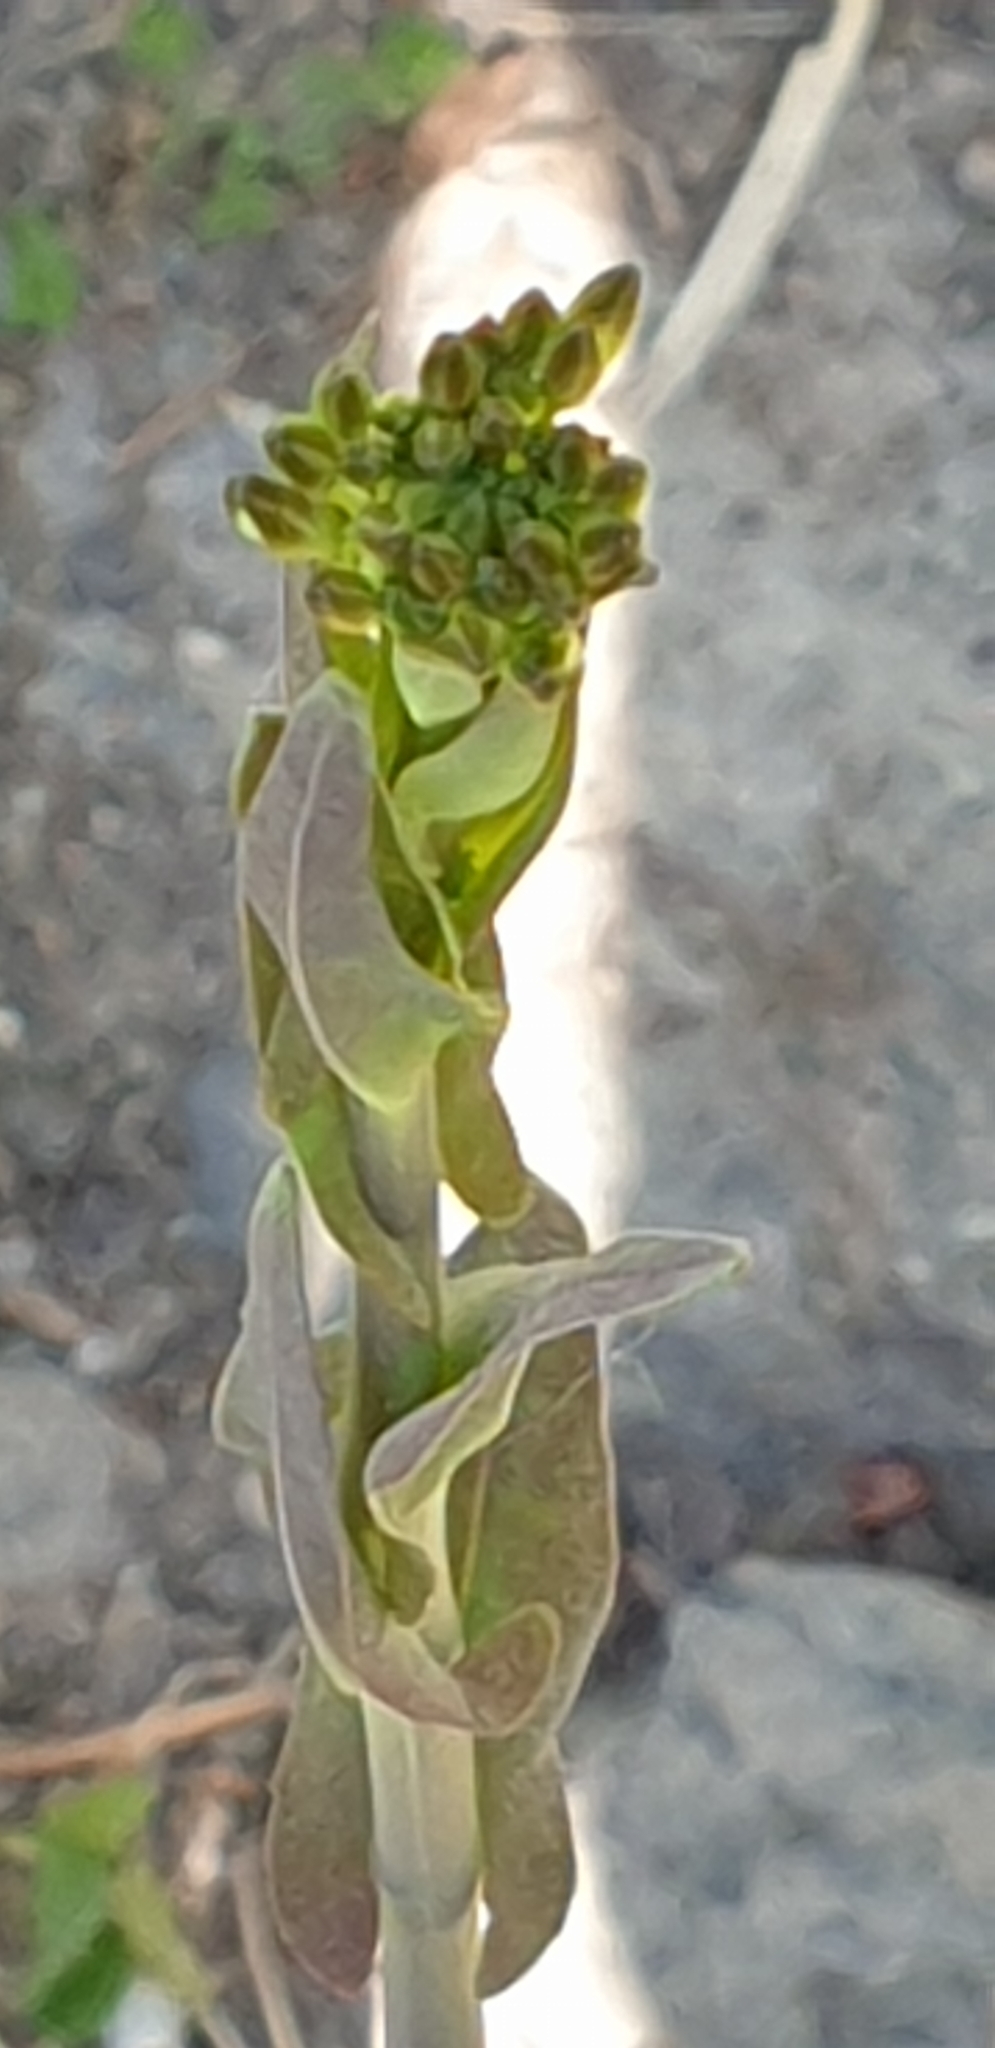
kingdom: Plantae
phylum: Tracheophyta
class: Magnoliopsida
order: Brassicales
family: Brassicaceae
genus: Turritis
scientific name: Turritis glabra
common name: Tower rockcress
